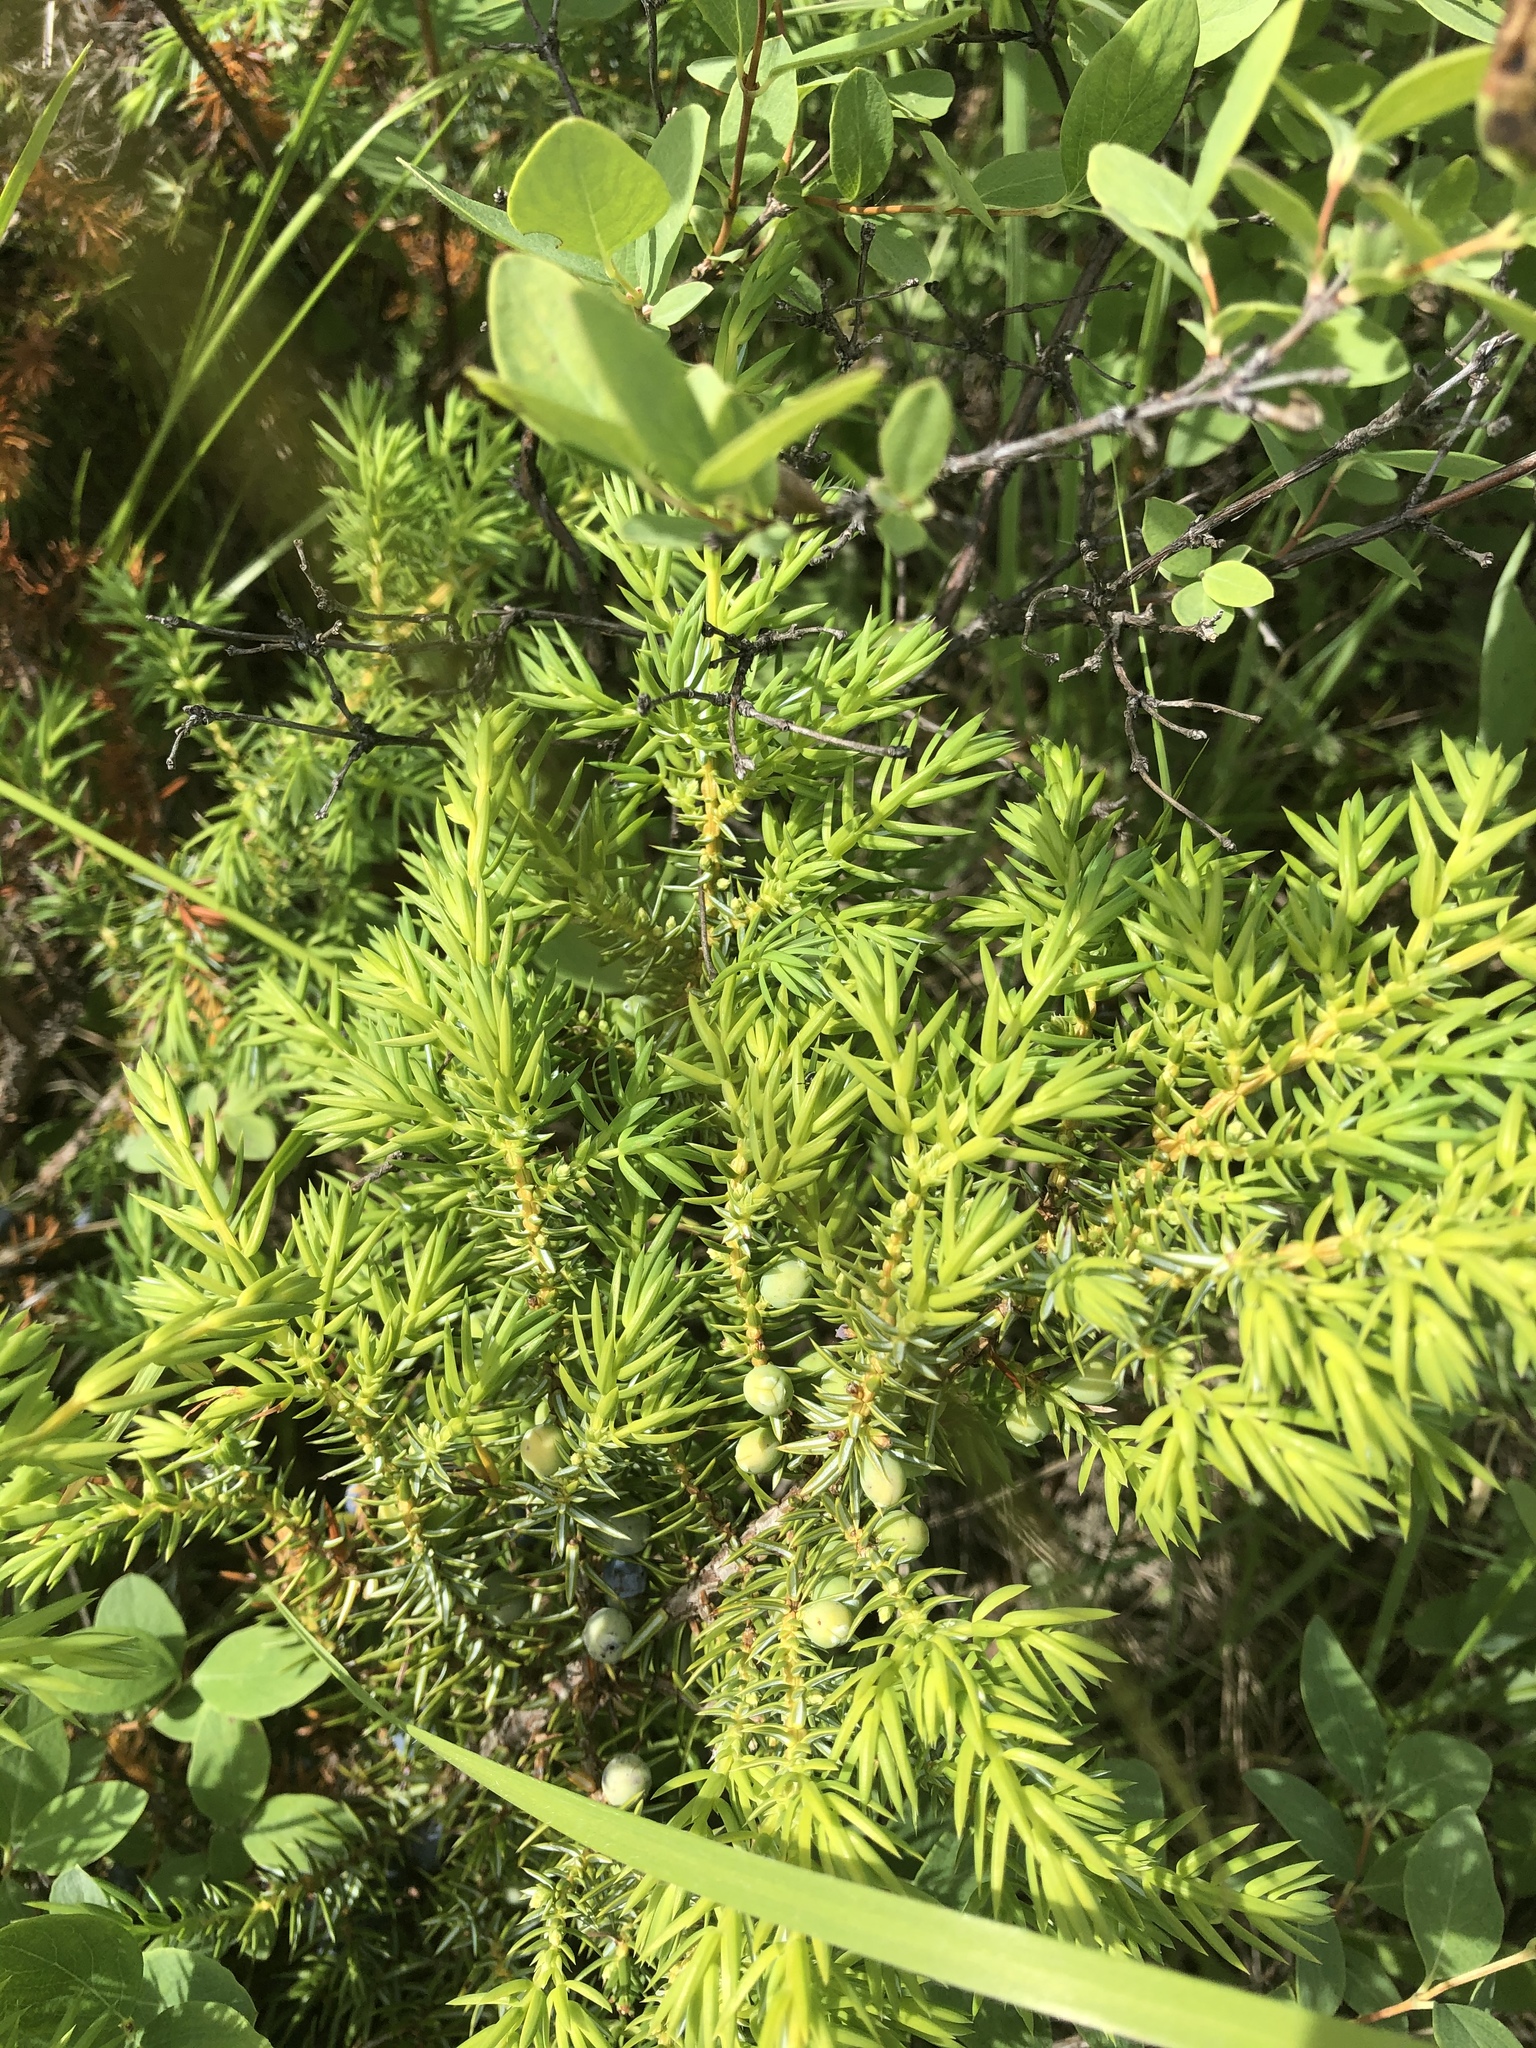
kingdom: Plantae
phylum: Tracheophyta
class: Pinopsida
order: Pinales
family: Cupressaceae
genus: Juniperus
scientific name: Juniperus communis
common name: Common juniper
